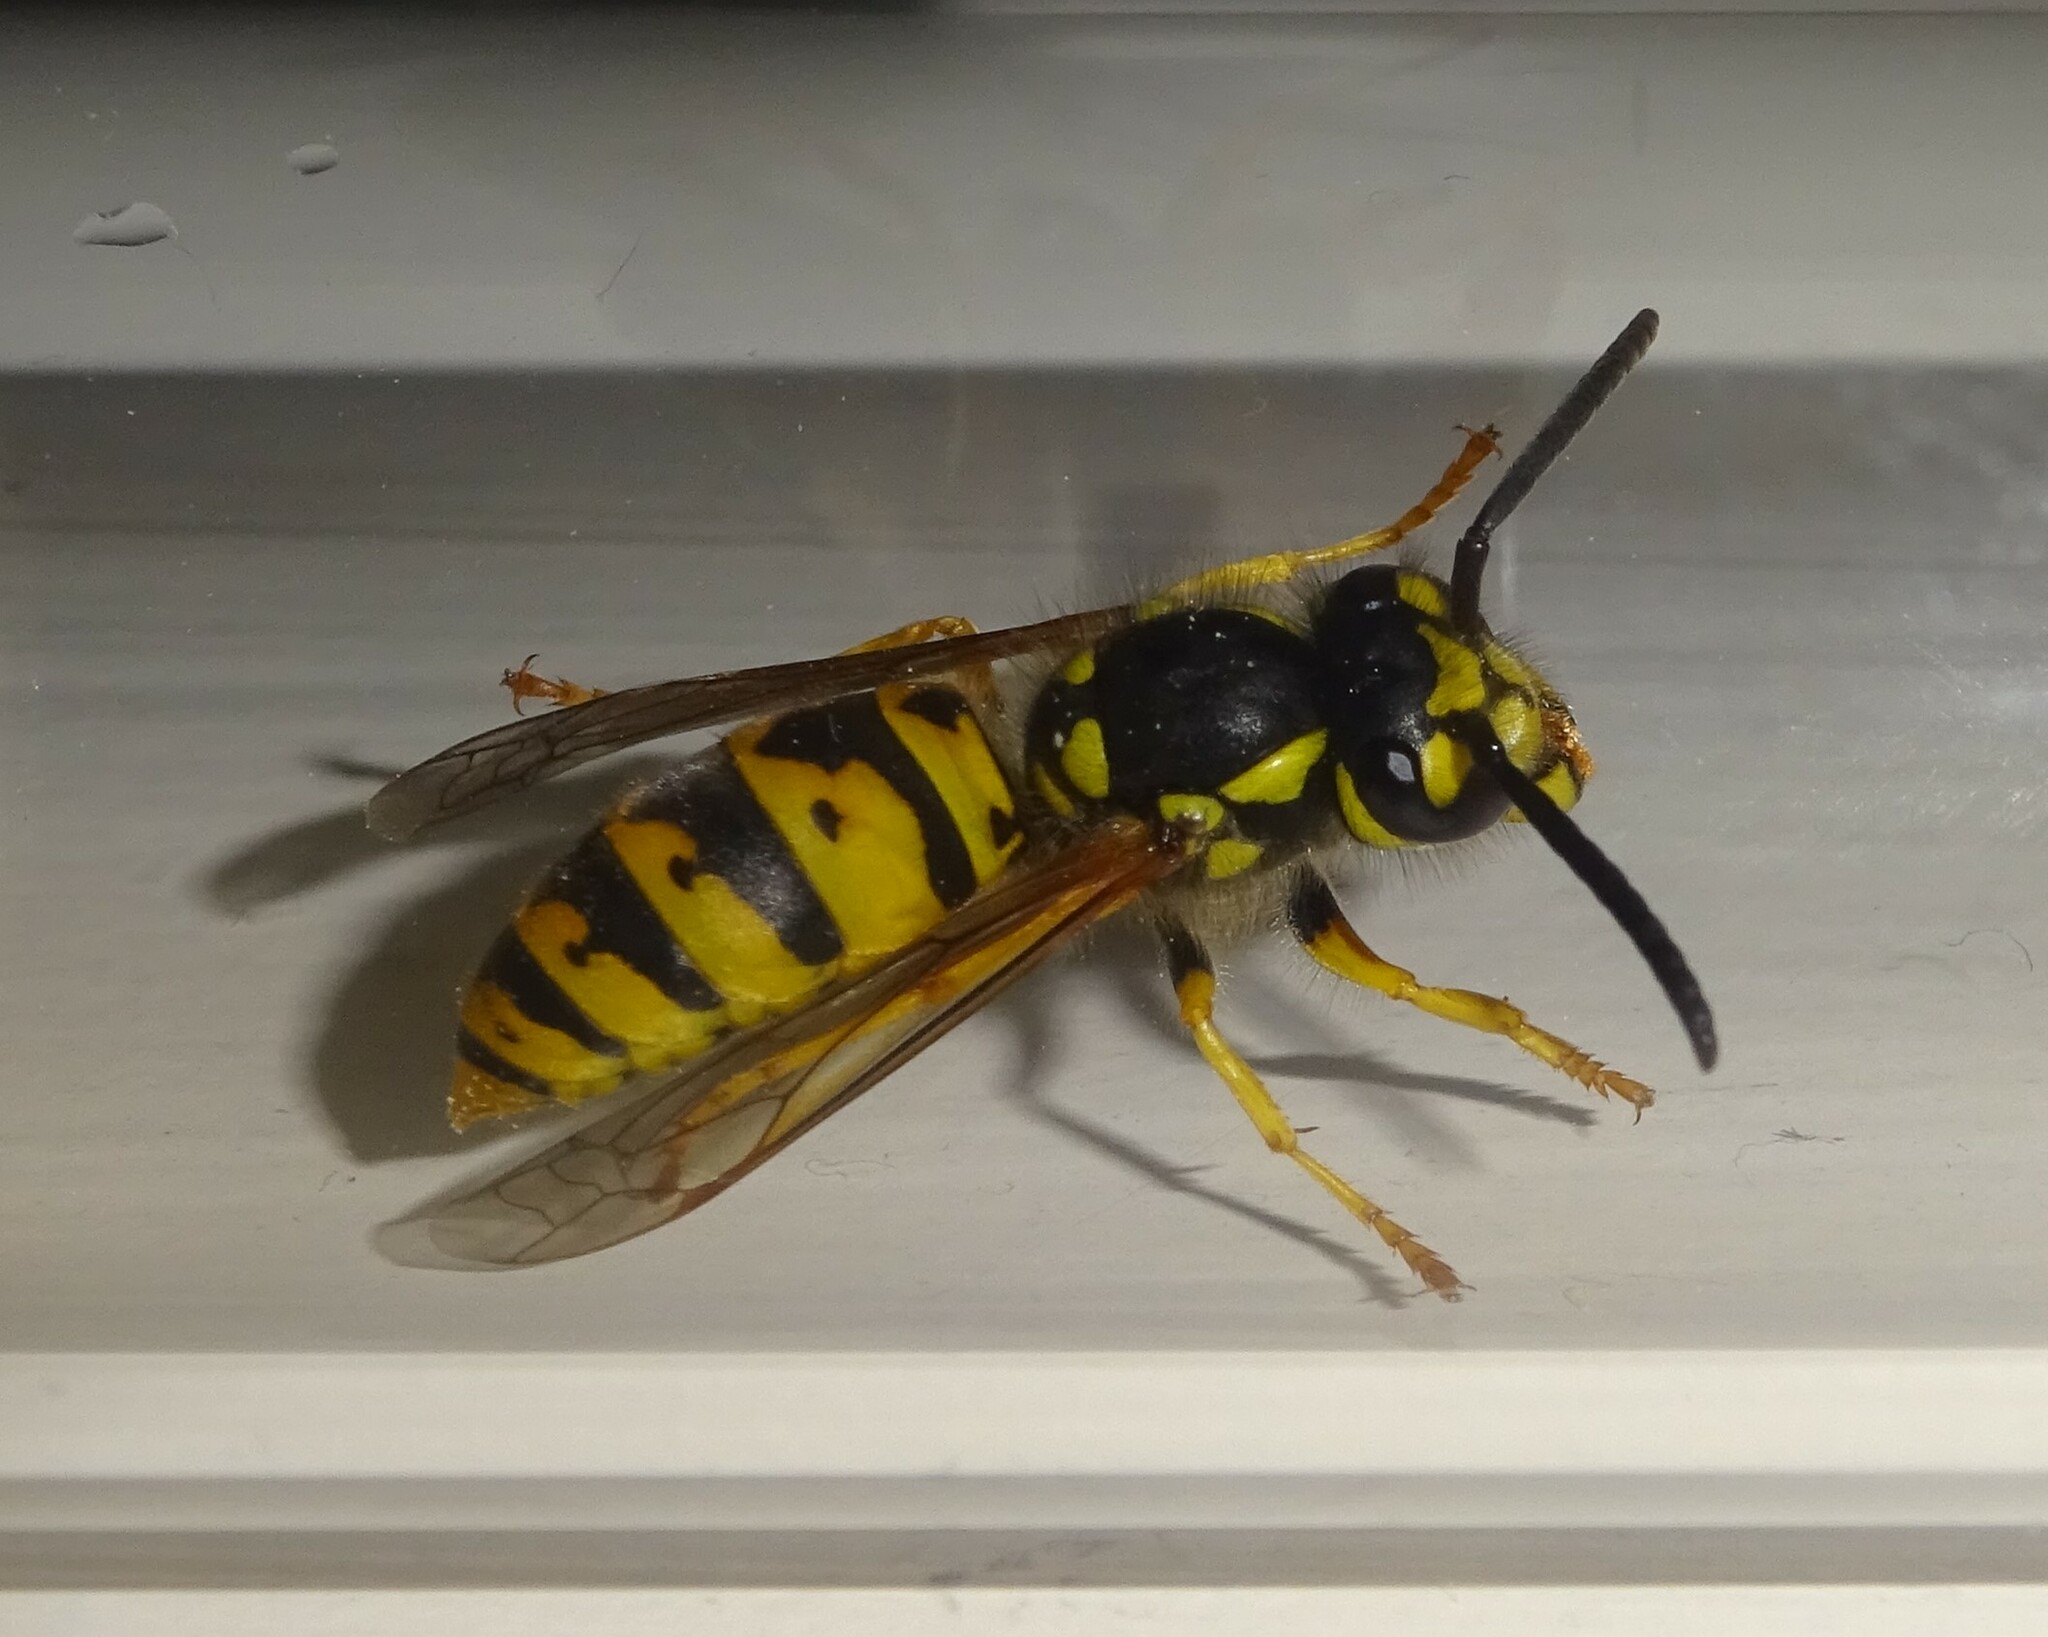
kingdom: Animalia
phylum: Arthropoda
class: Insecta
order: Hymenoptera
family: Vespidae
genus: Vespula
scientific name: Vespula germanica
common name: German wasp
